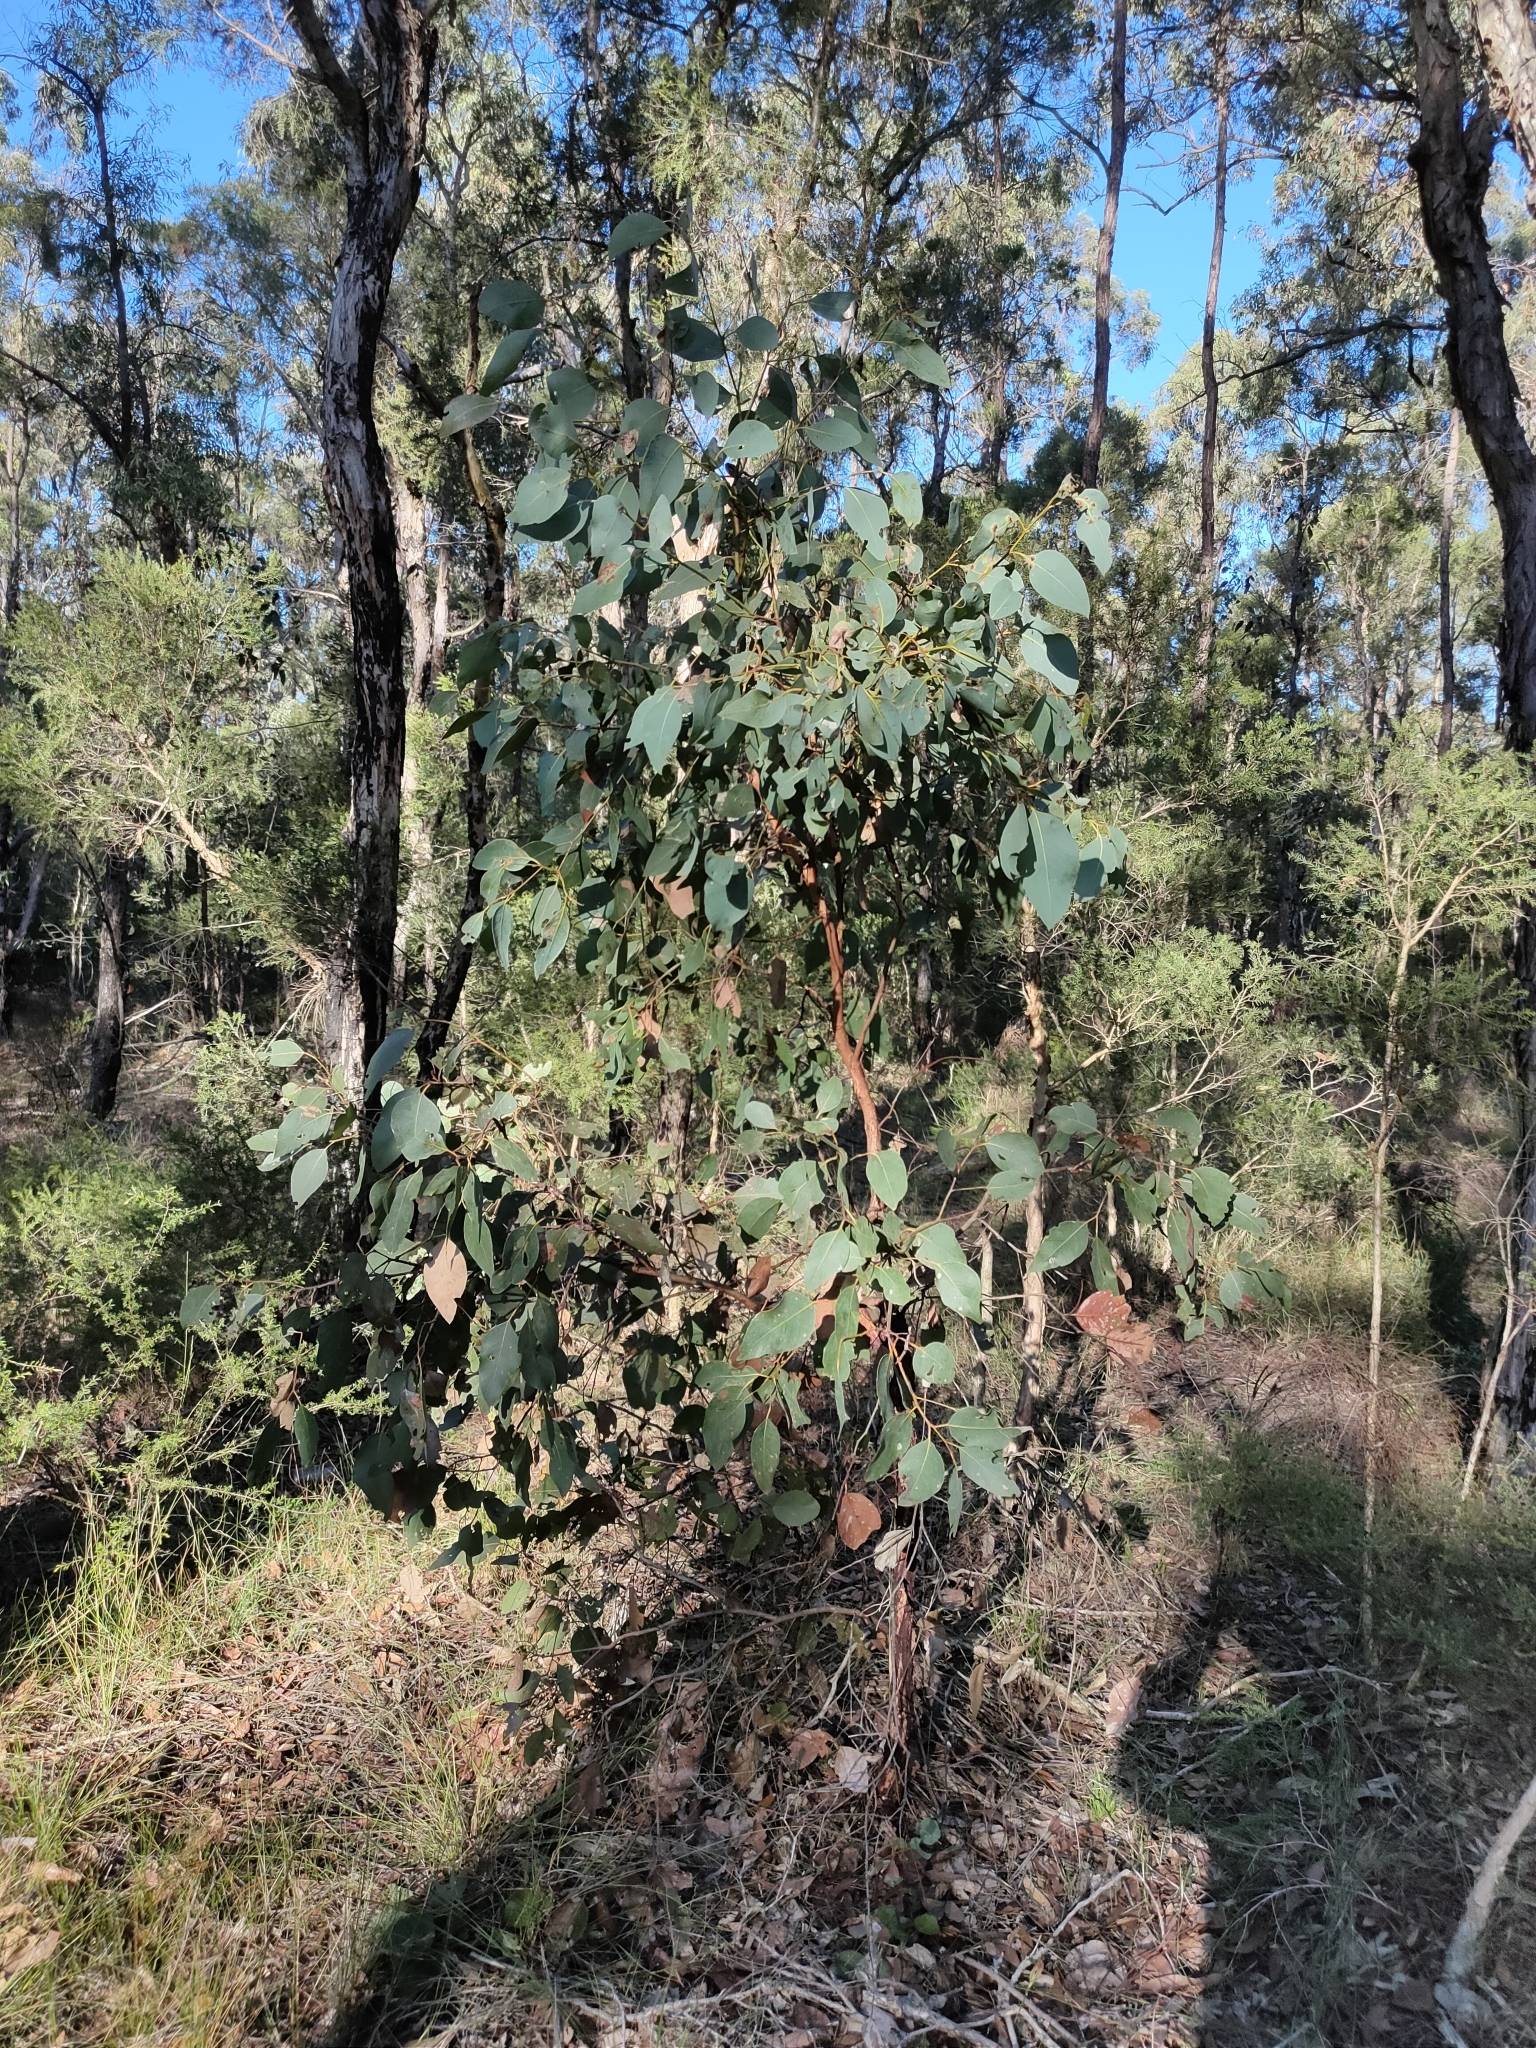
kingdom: Plantae
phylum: Tracheophyta
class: Magnoliopsida
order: Myrtales
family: Myrtaceae
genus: Eucalyptus
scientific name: Eucalyptus fibrosa
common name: Red ironbark
